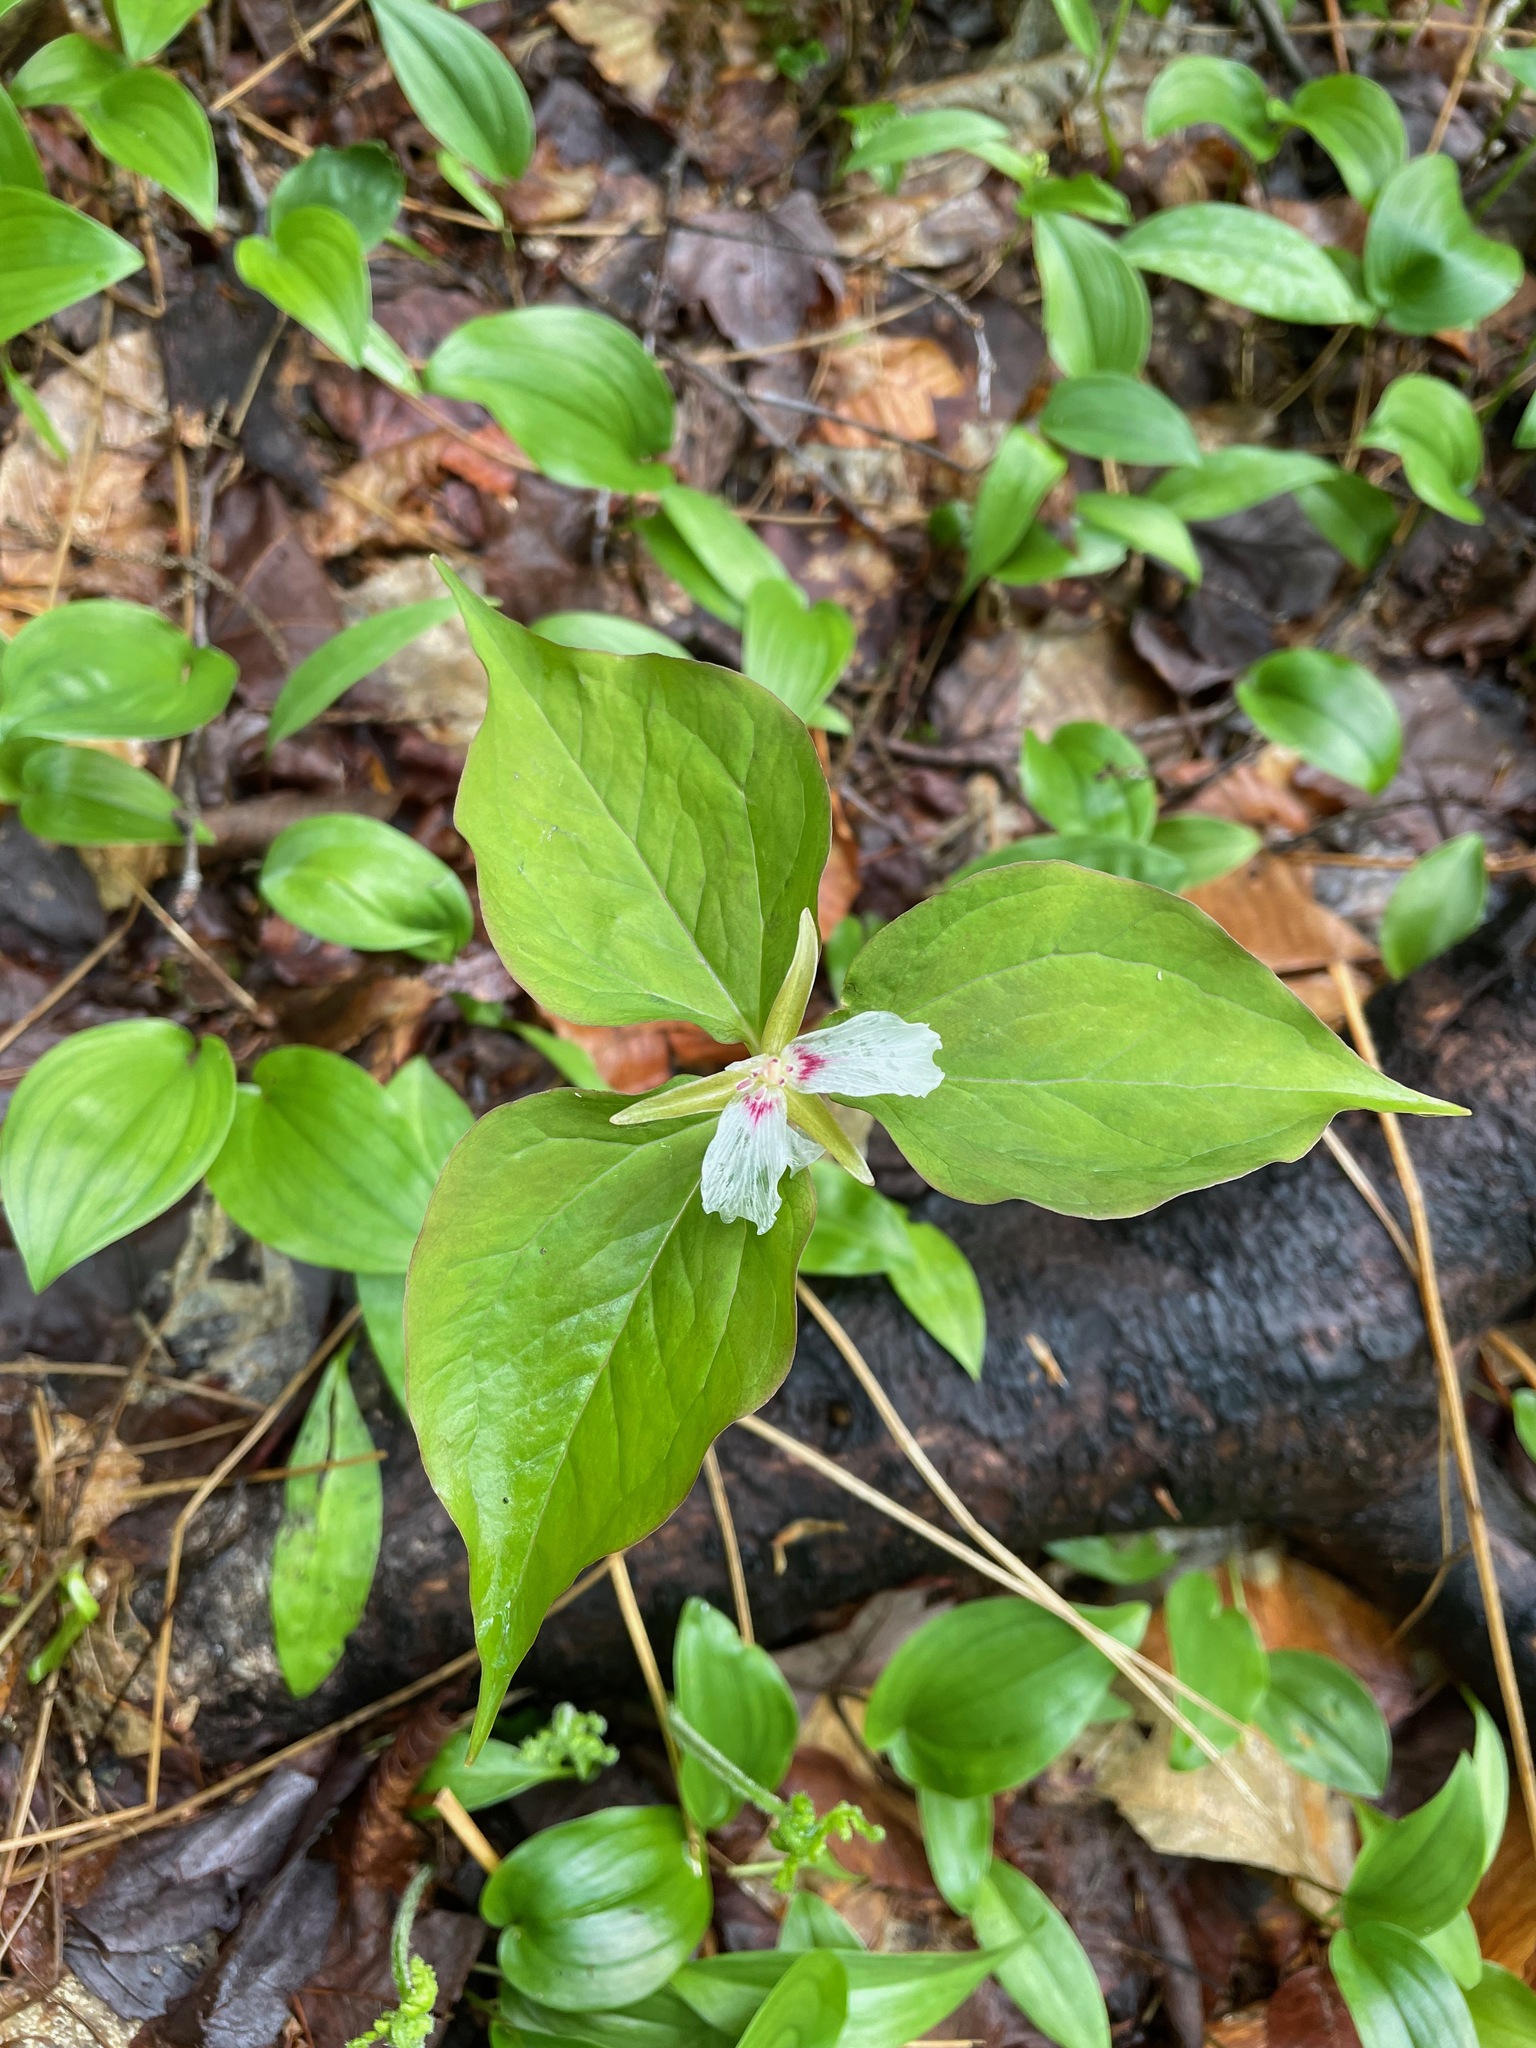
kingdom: Plantae
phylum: Tracheophyta
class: Liliopsida
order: Liliales
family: Melanthiaceae
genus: Trillium
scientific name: Trillium undulatum
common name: Paint trillium
